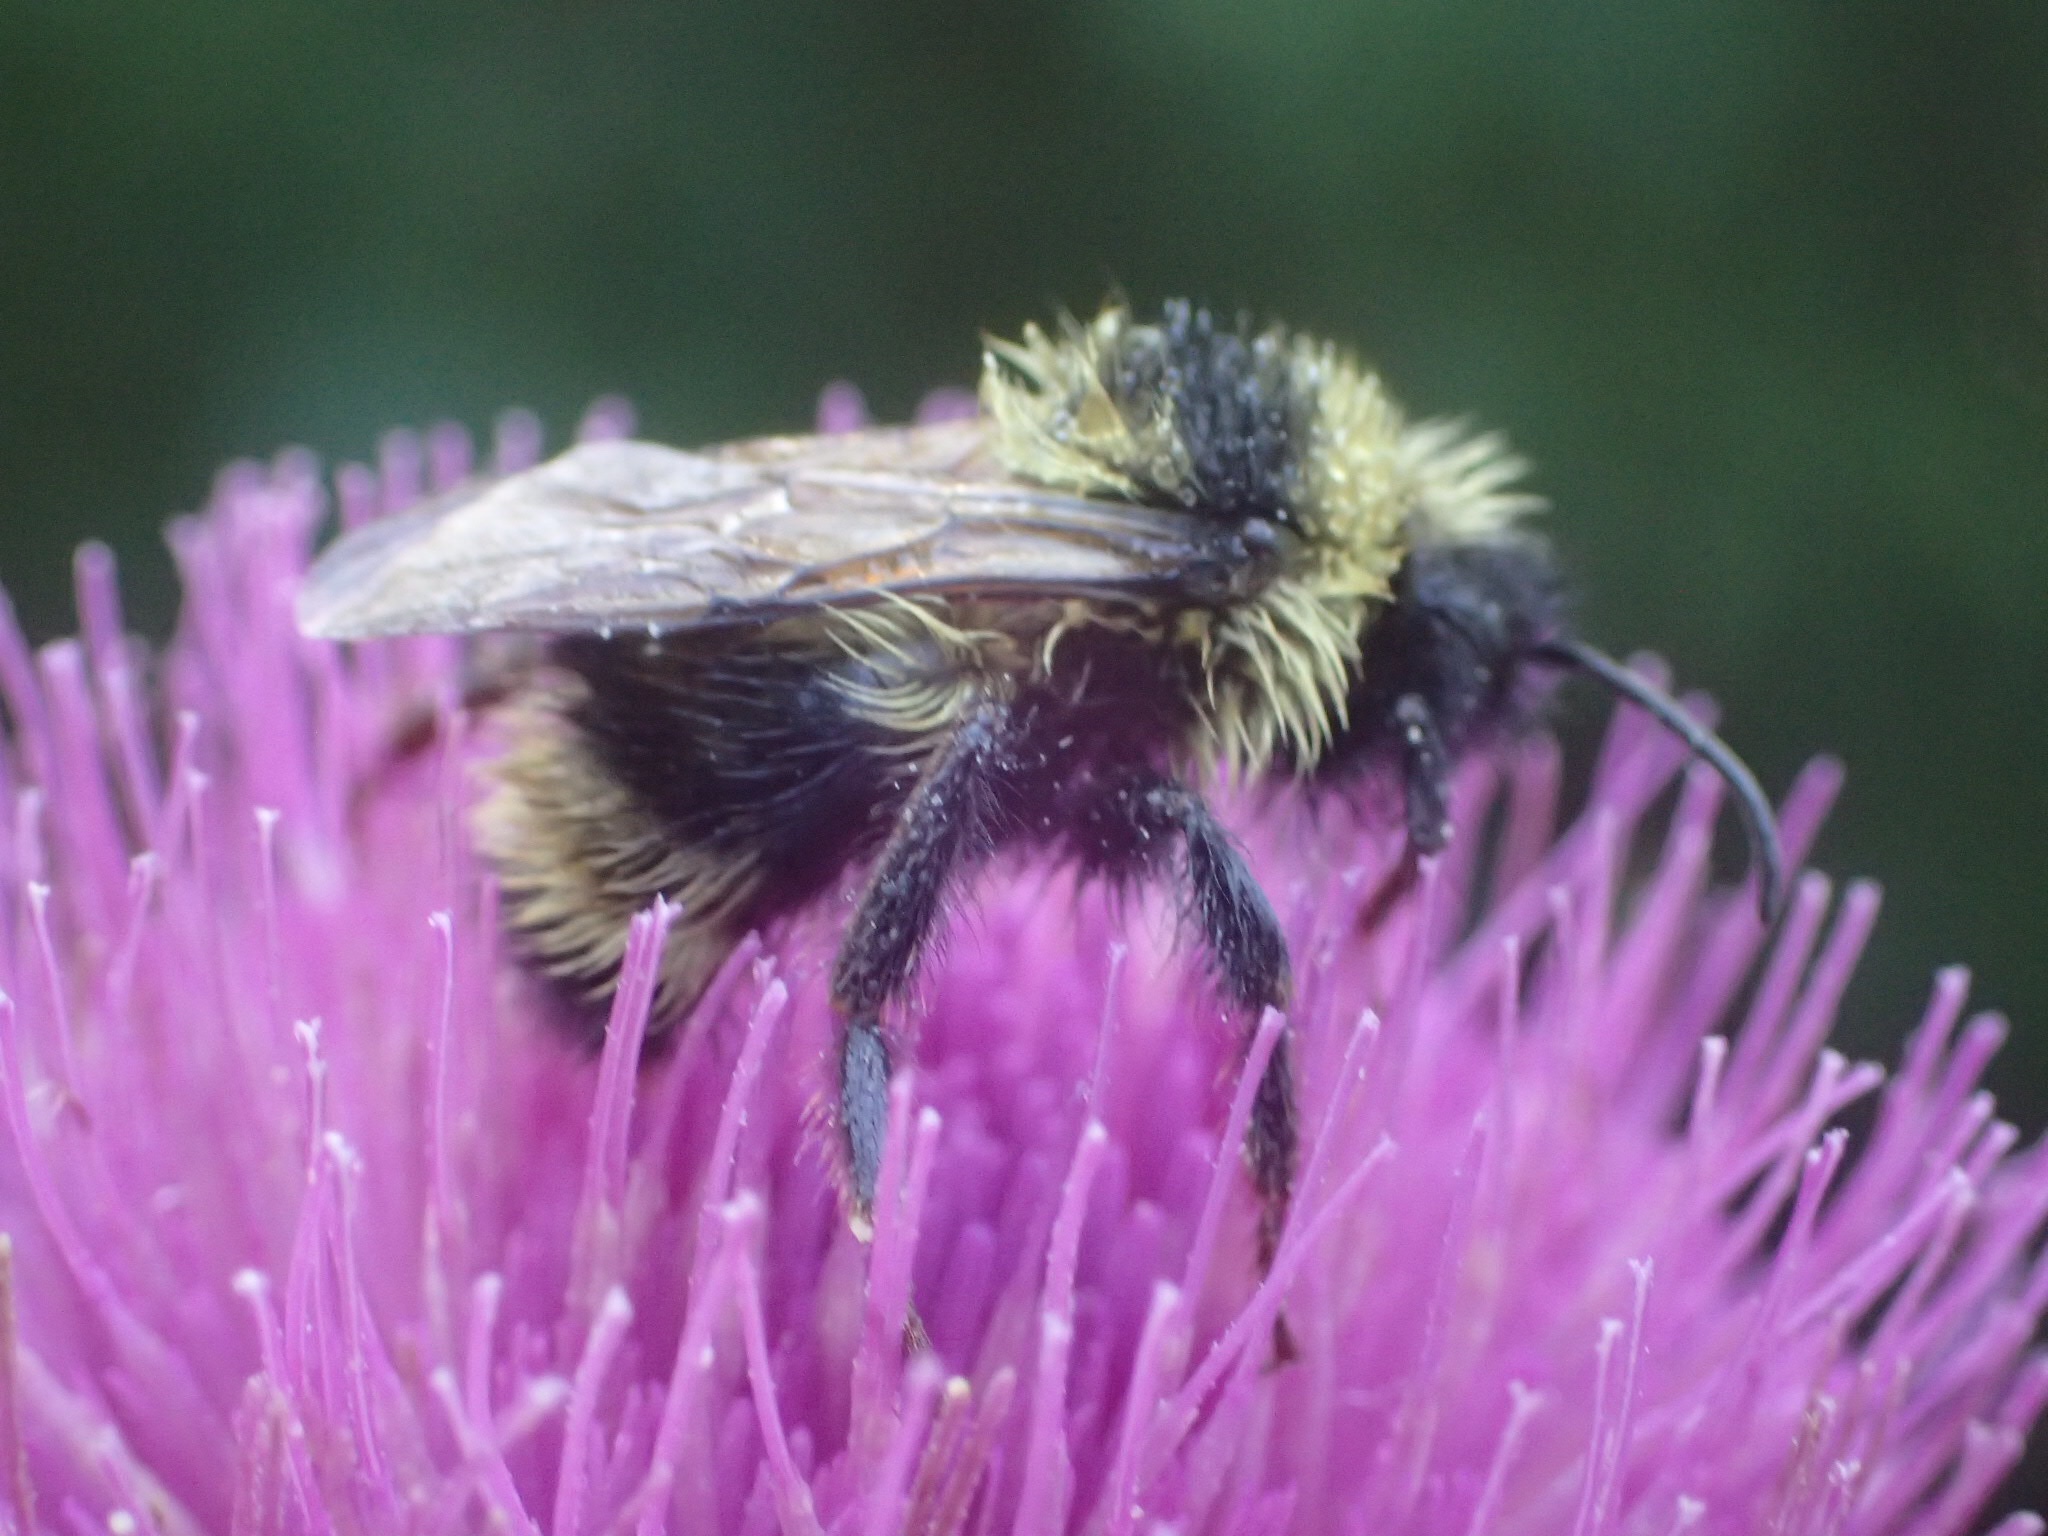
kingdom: Animalia
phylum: Arthropoda
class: Insecta
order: Hymenoptera
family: Apidae
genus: Bombus
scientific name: Bombus flavidus
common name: Fernald cuckoo bumble bee
